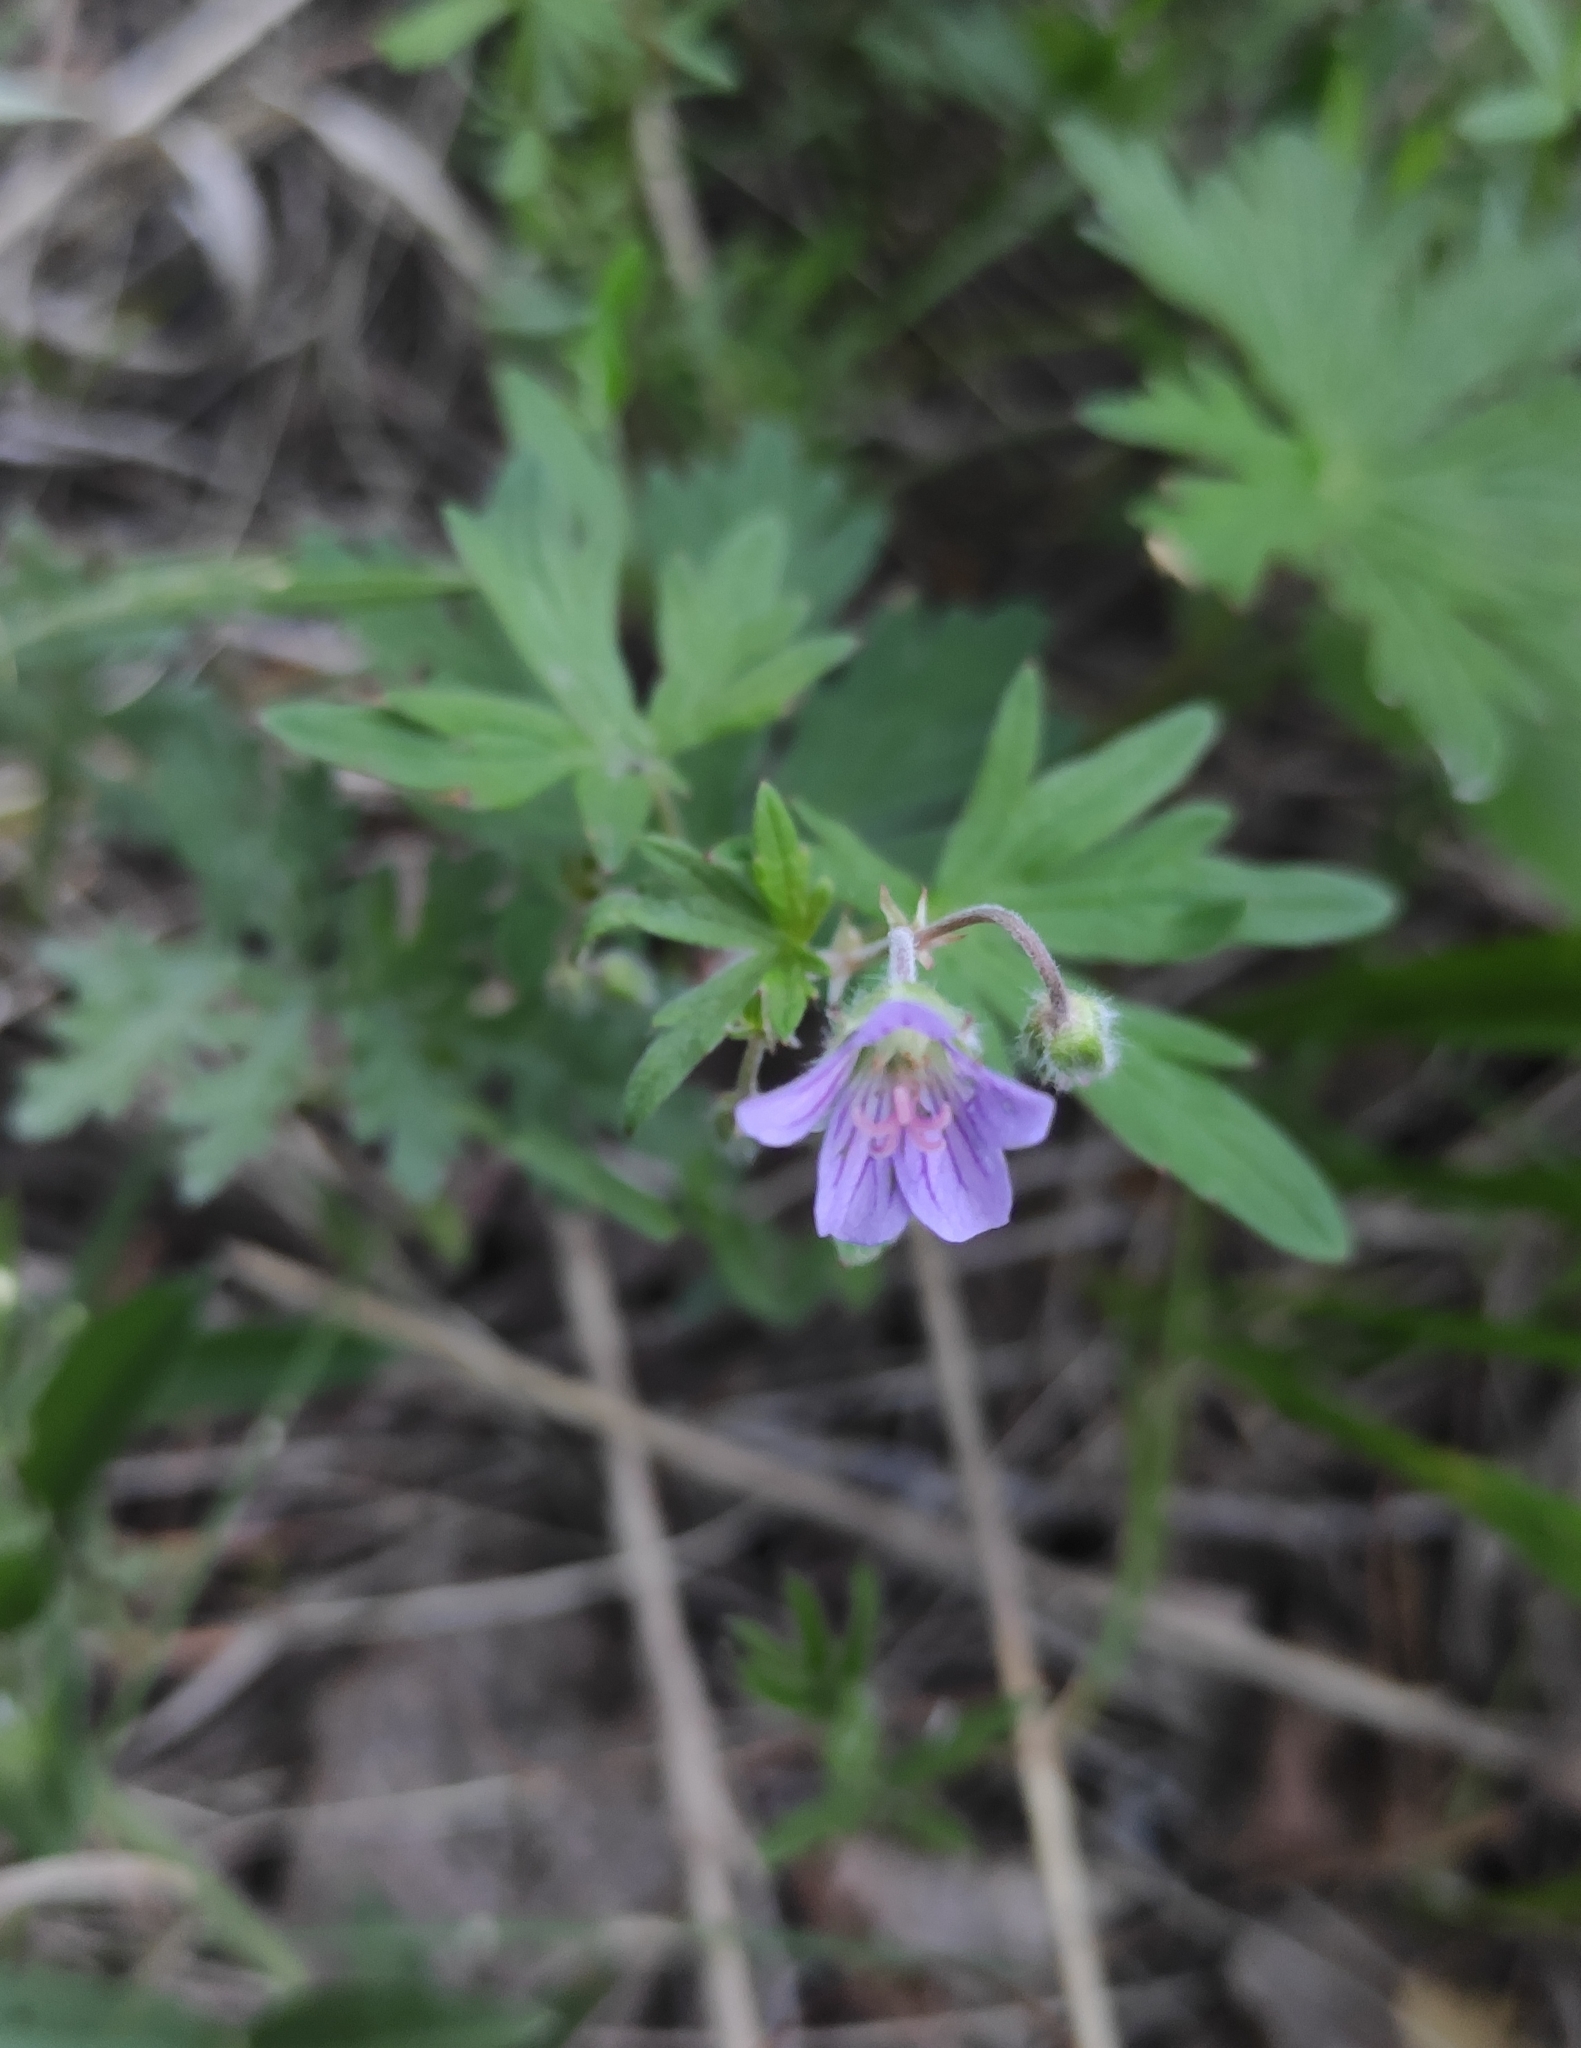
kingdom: Plantae
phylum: Tracheophyta
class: Magnoliopsida
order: Geraniales
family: Geraniaceae
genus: Geranium
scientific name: Geranium pseudosibiricum
